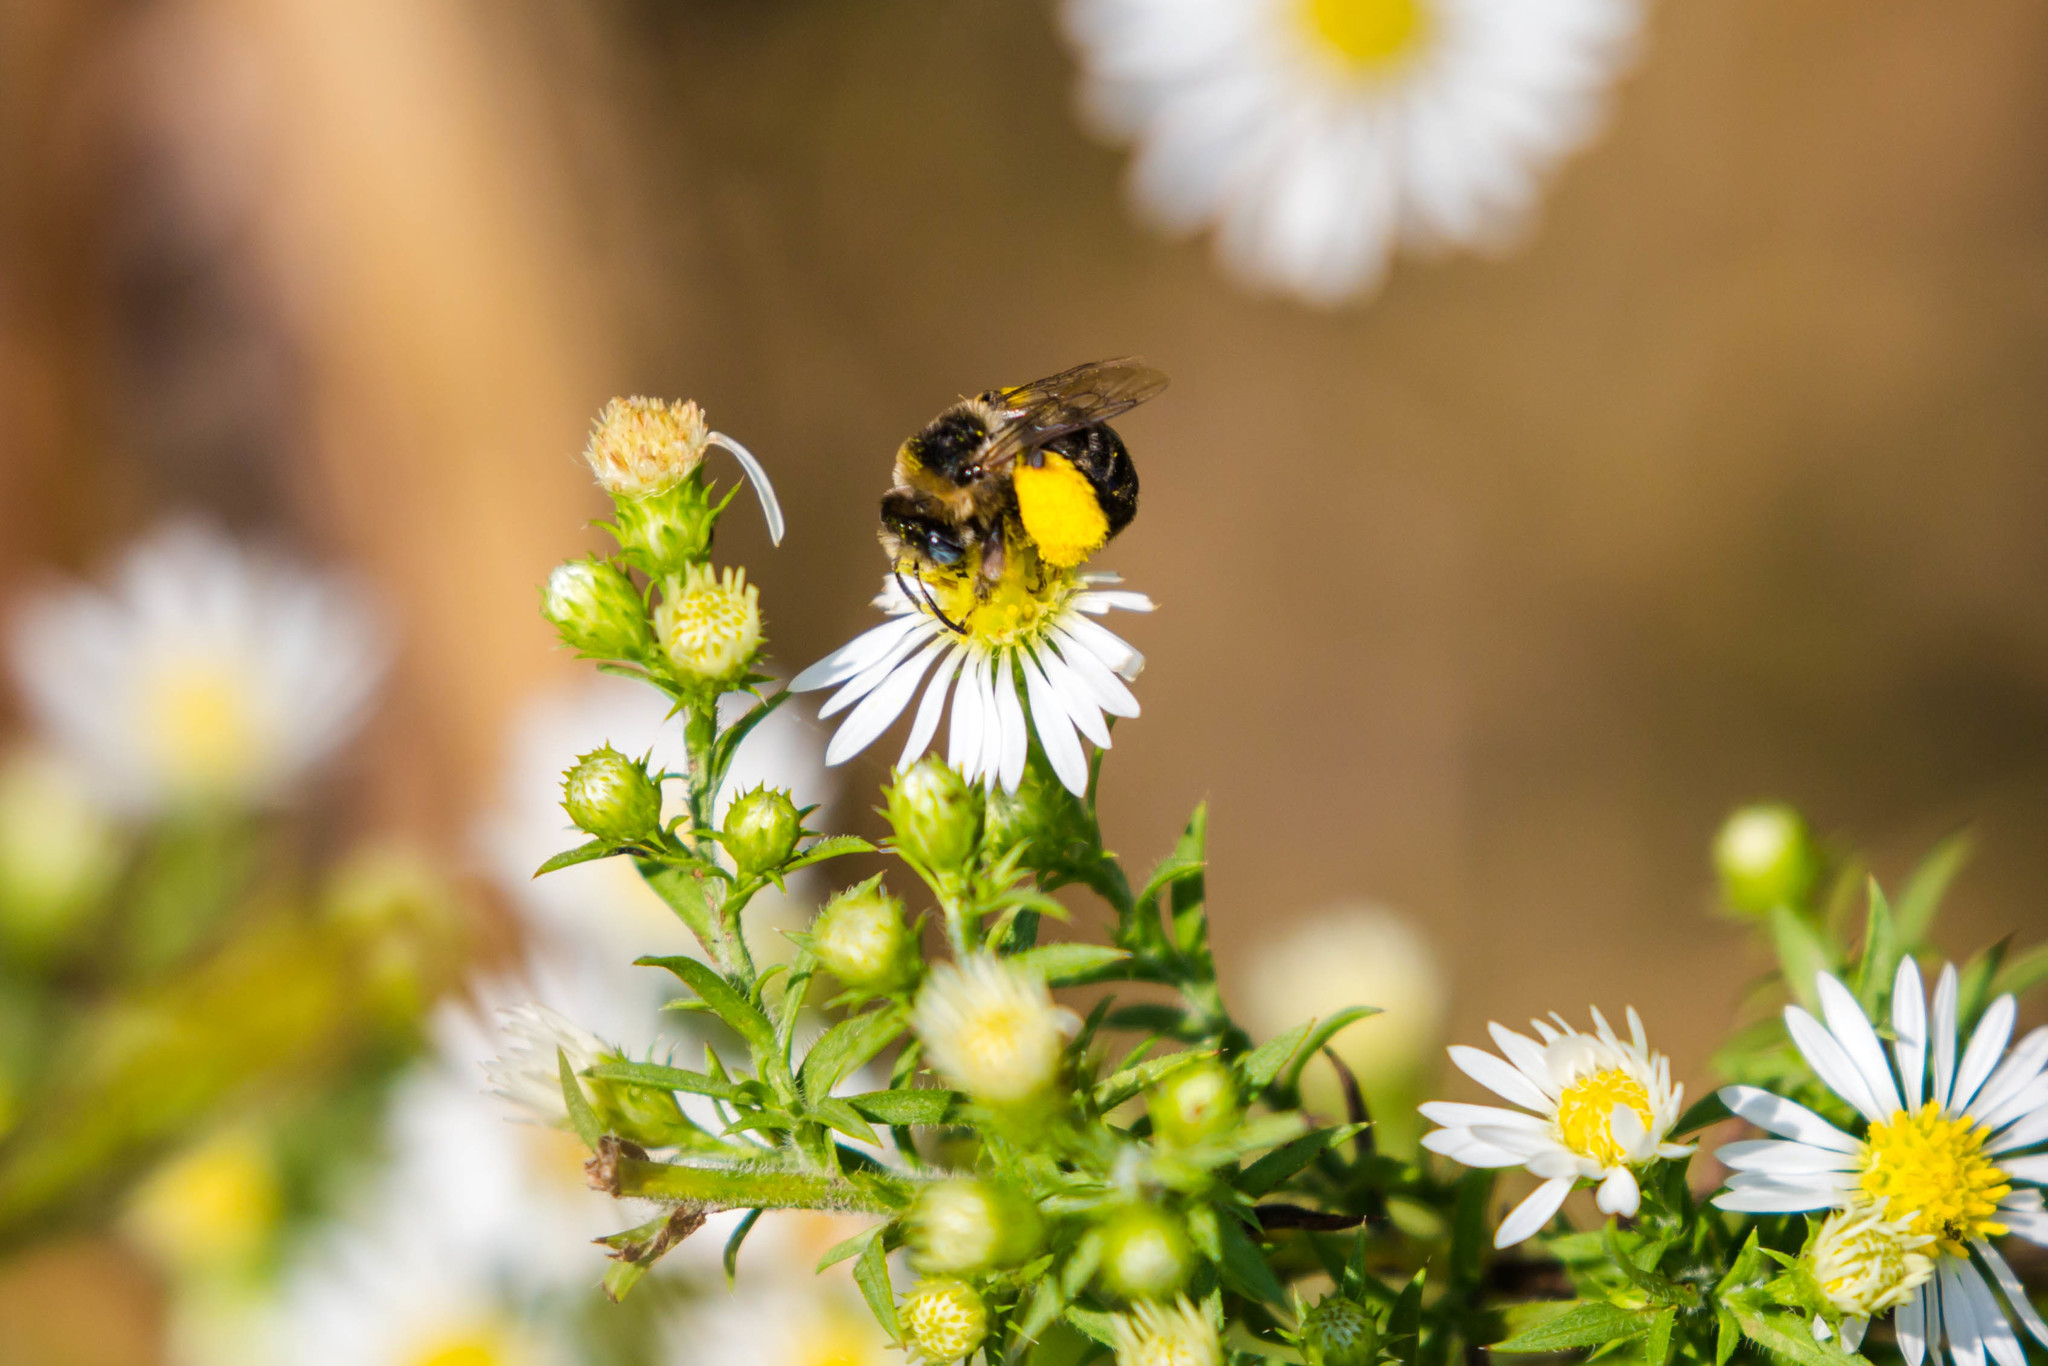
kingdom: Animalia
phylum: Arthropoda
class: Insecta
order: Hymenoptera
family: Apidae
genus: Melissodes
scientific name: Melissodes communis
